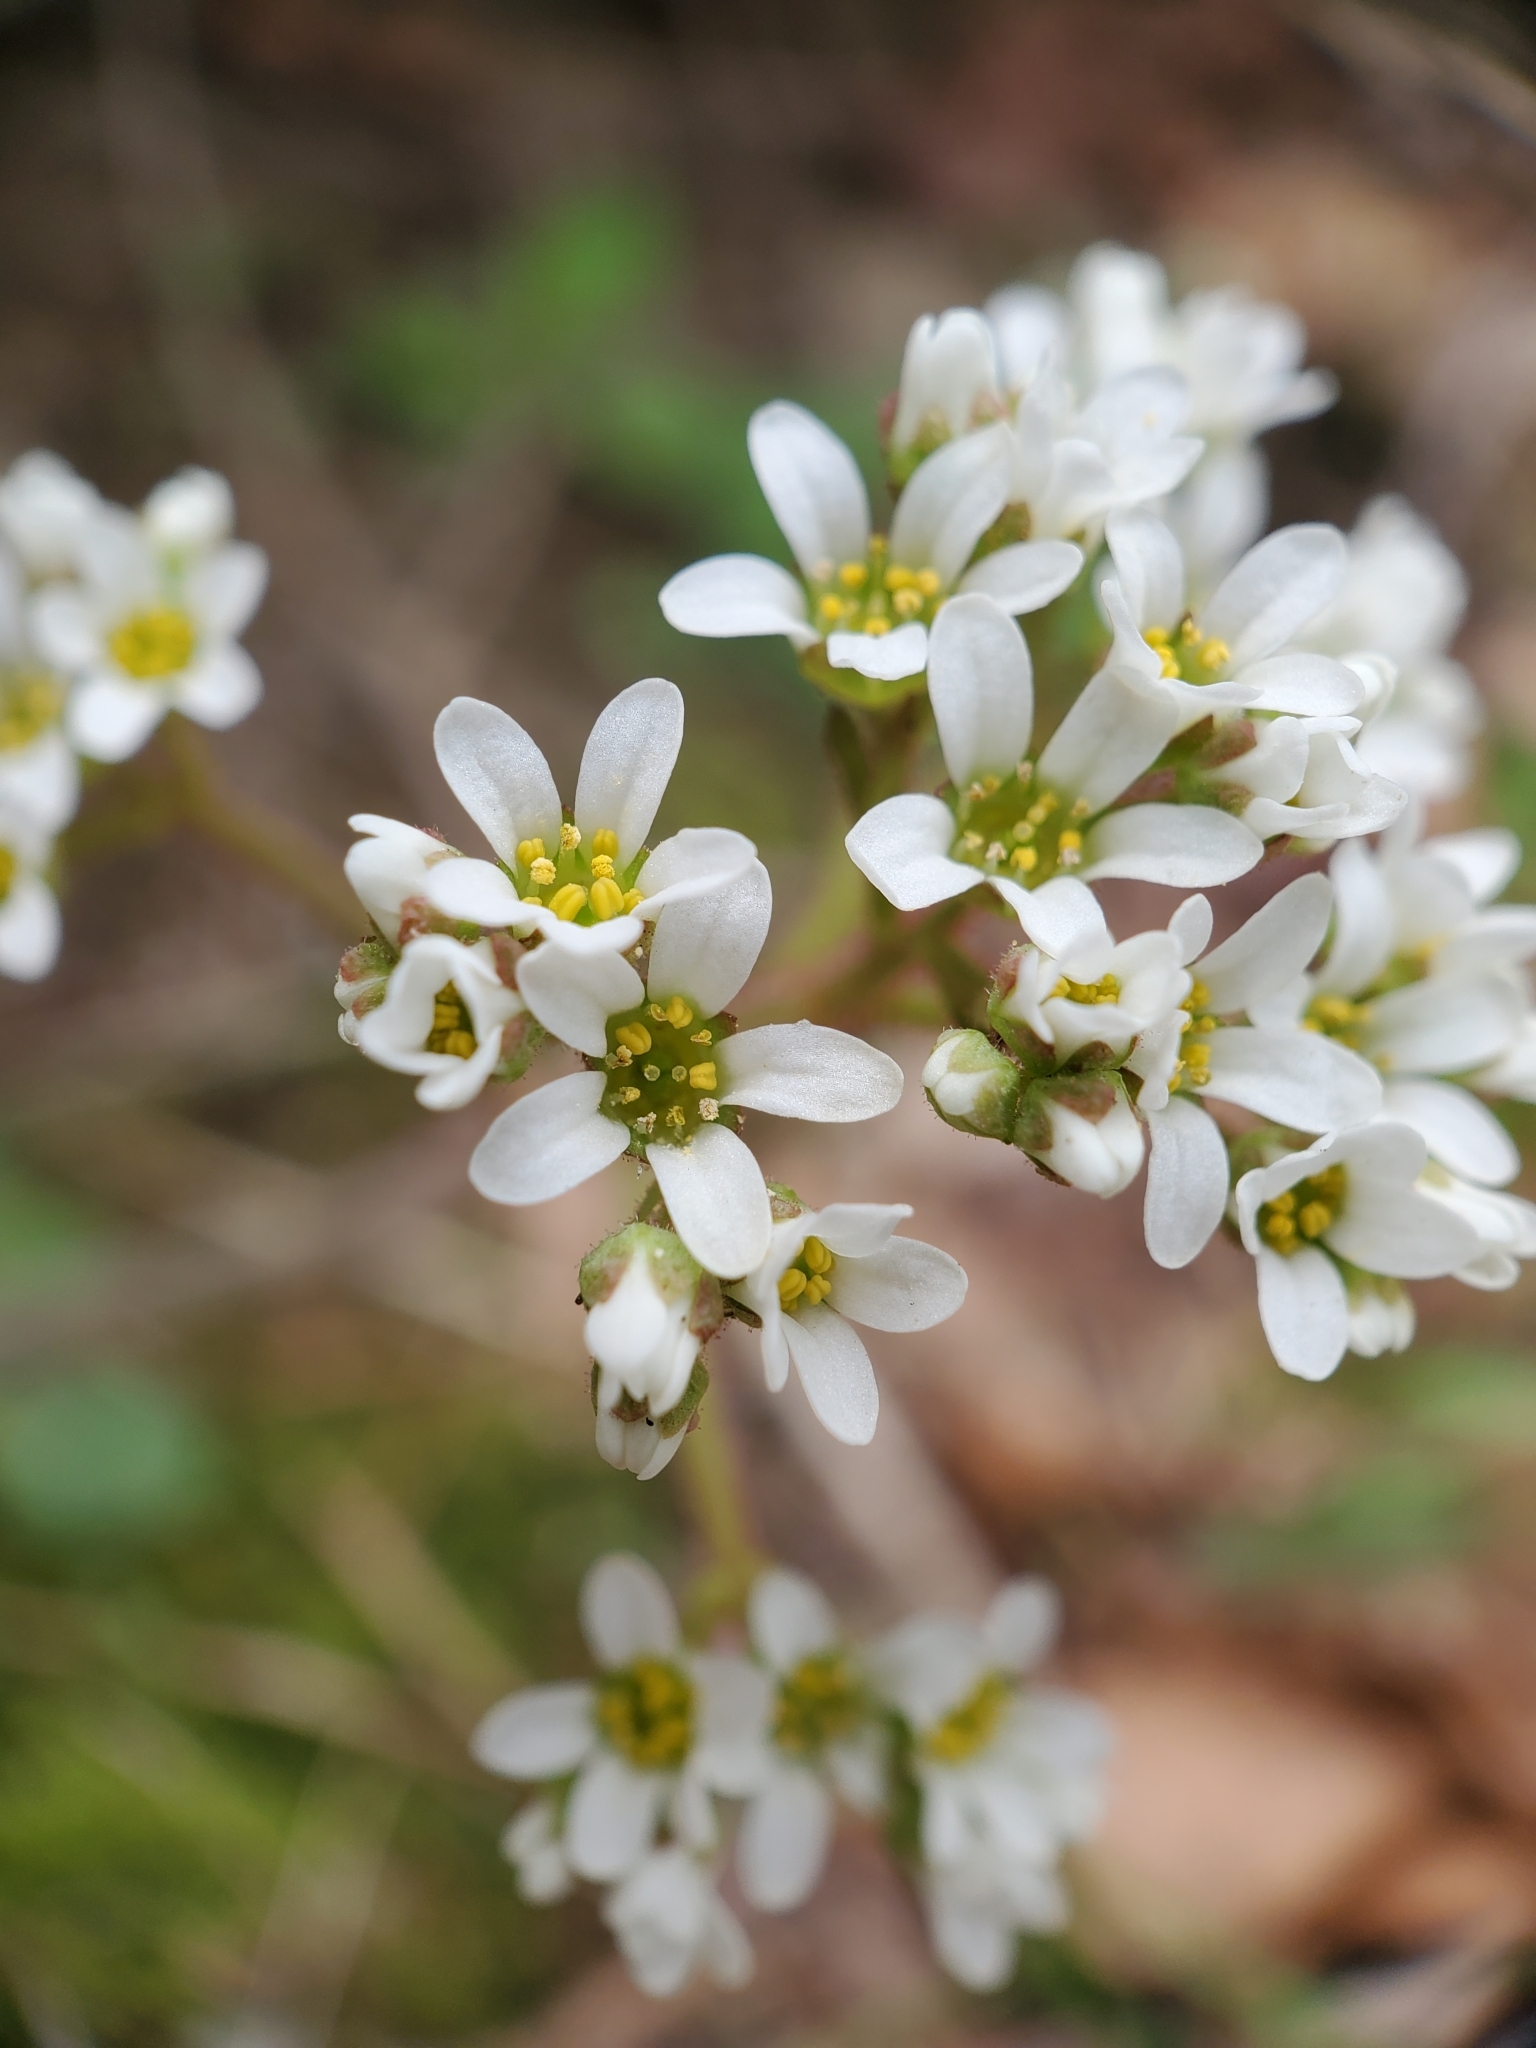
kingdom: Plantae
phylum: Tracheophyta
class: Magnoliopsida
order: Saxifragales
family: Saxifragaceae
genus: Micranthes
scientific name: Micranthes virginiensis
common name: Early saxifrage
